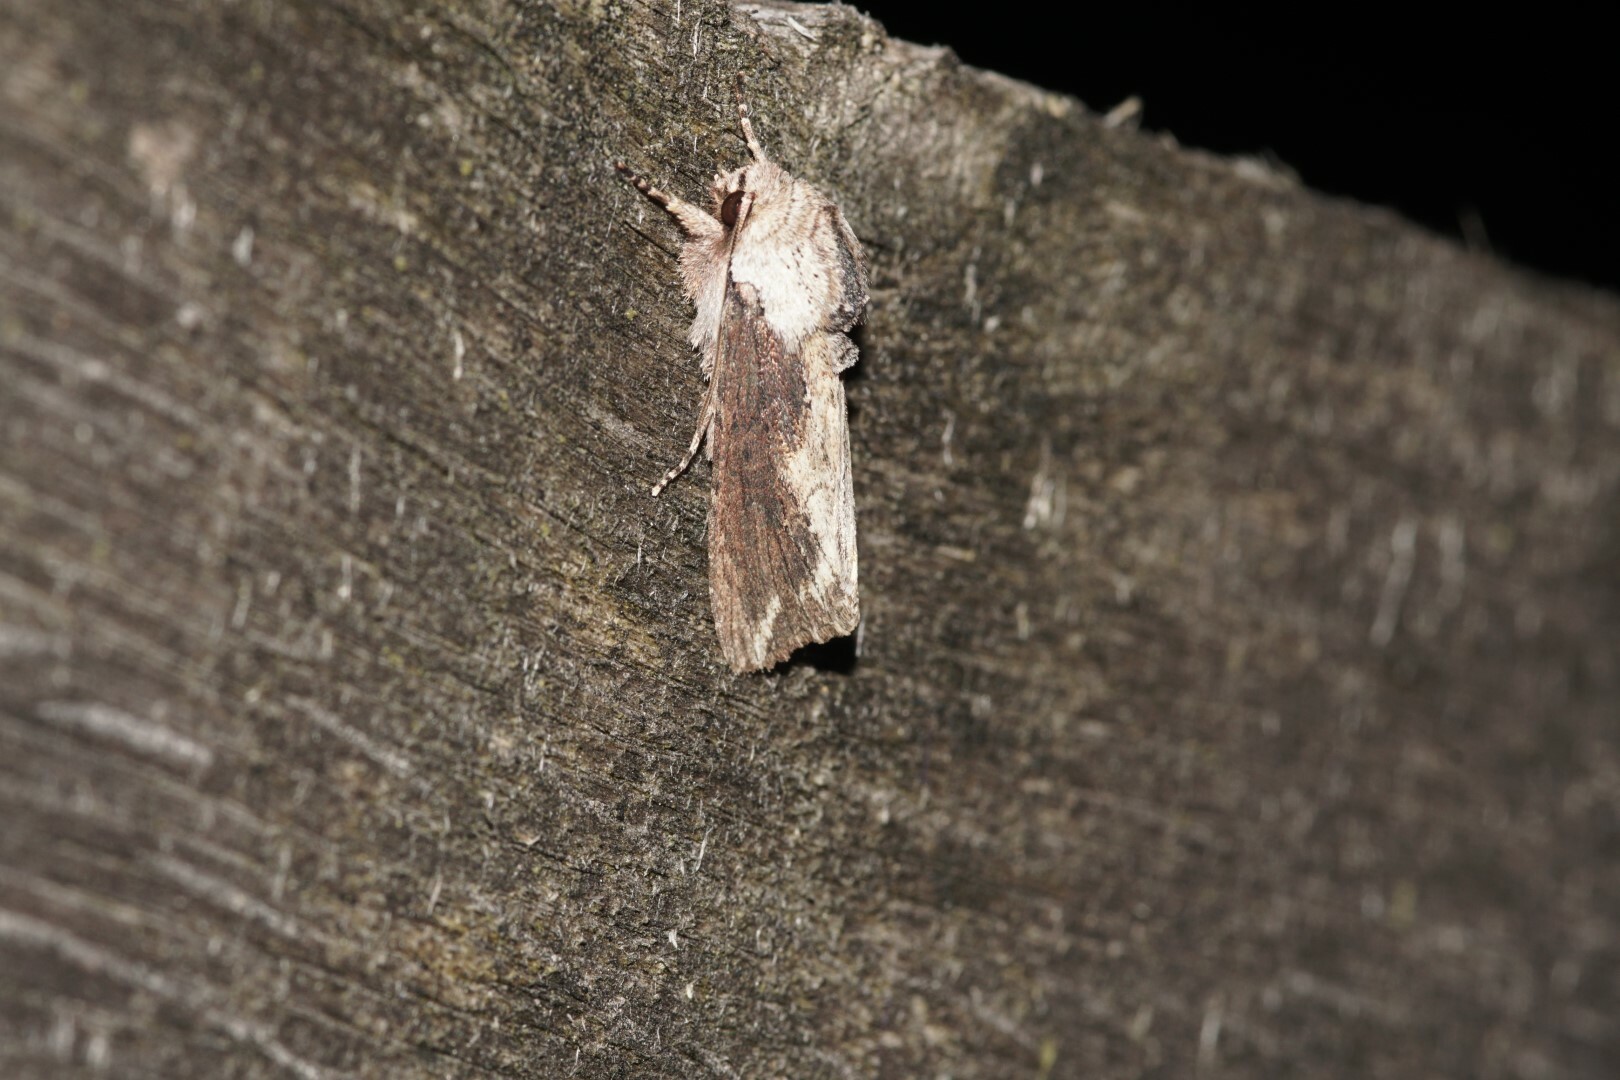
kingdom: Animalia
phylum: Arthropoda
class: Insecta
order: Lepidoptera
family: Noctuidae
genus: Egira
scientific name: Egira conspicillaris
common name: Silver cloud
